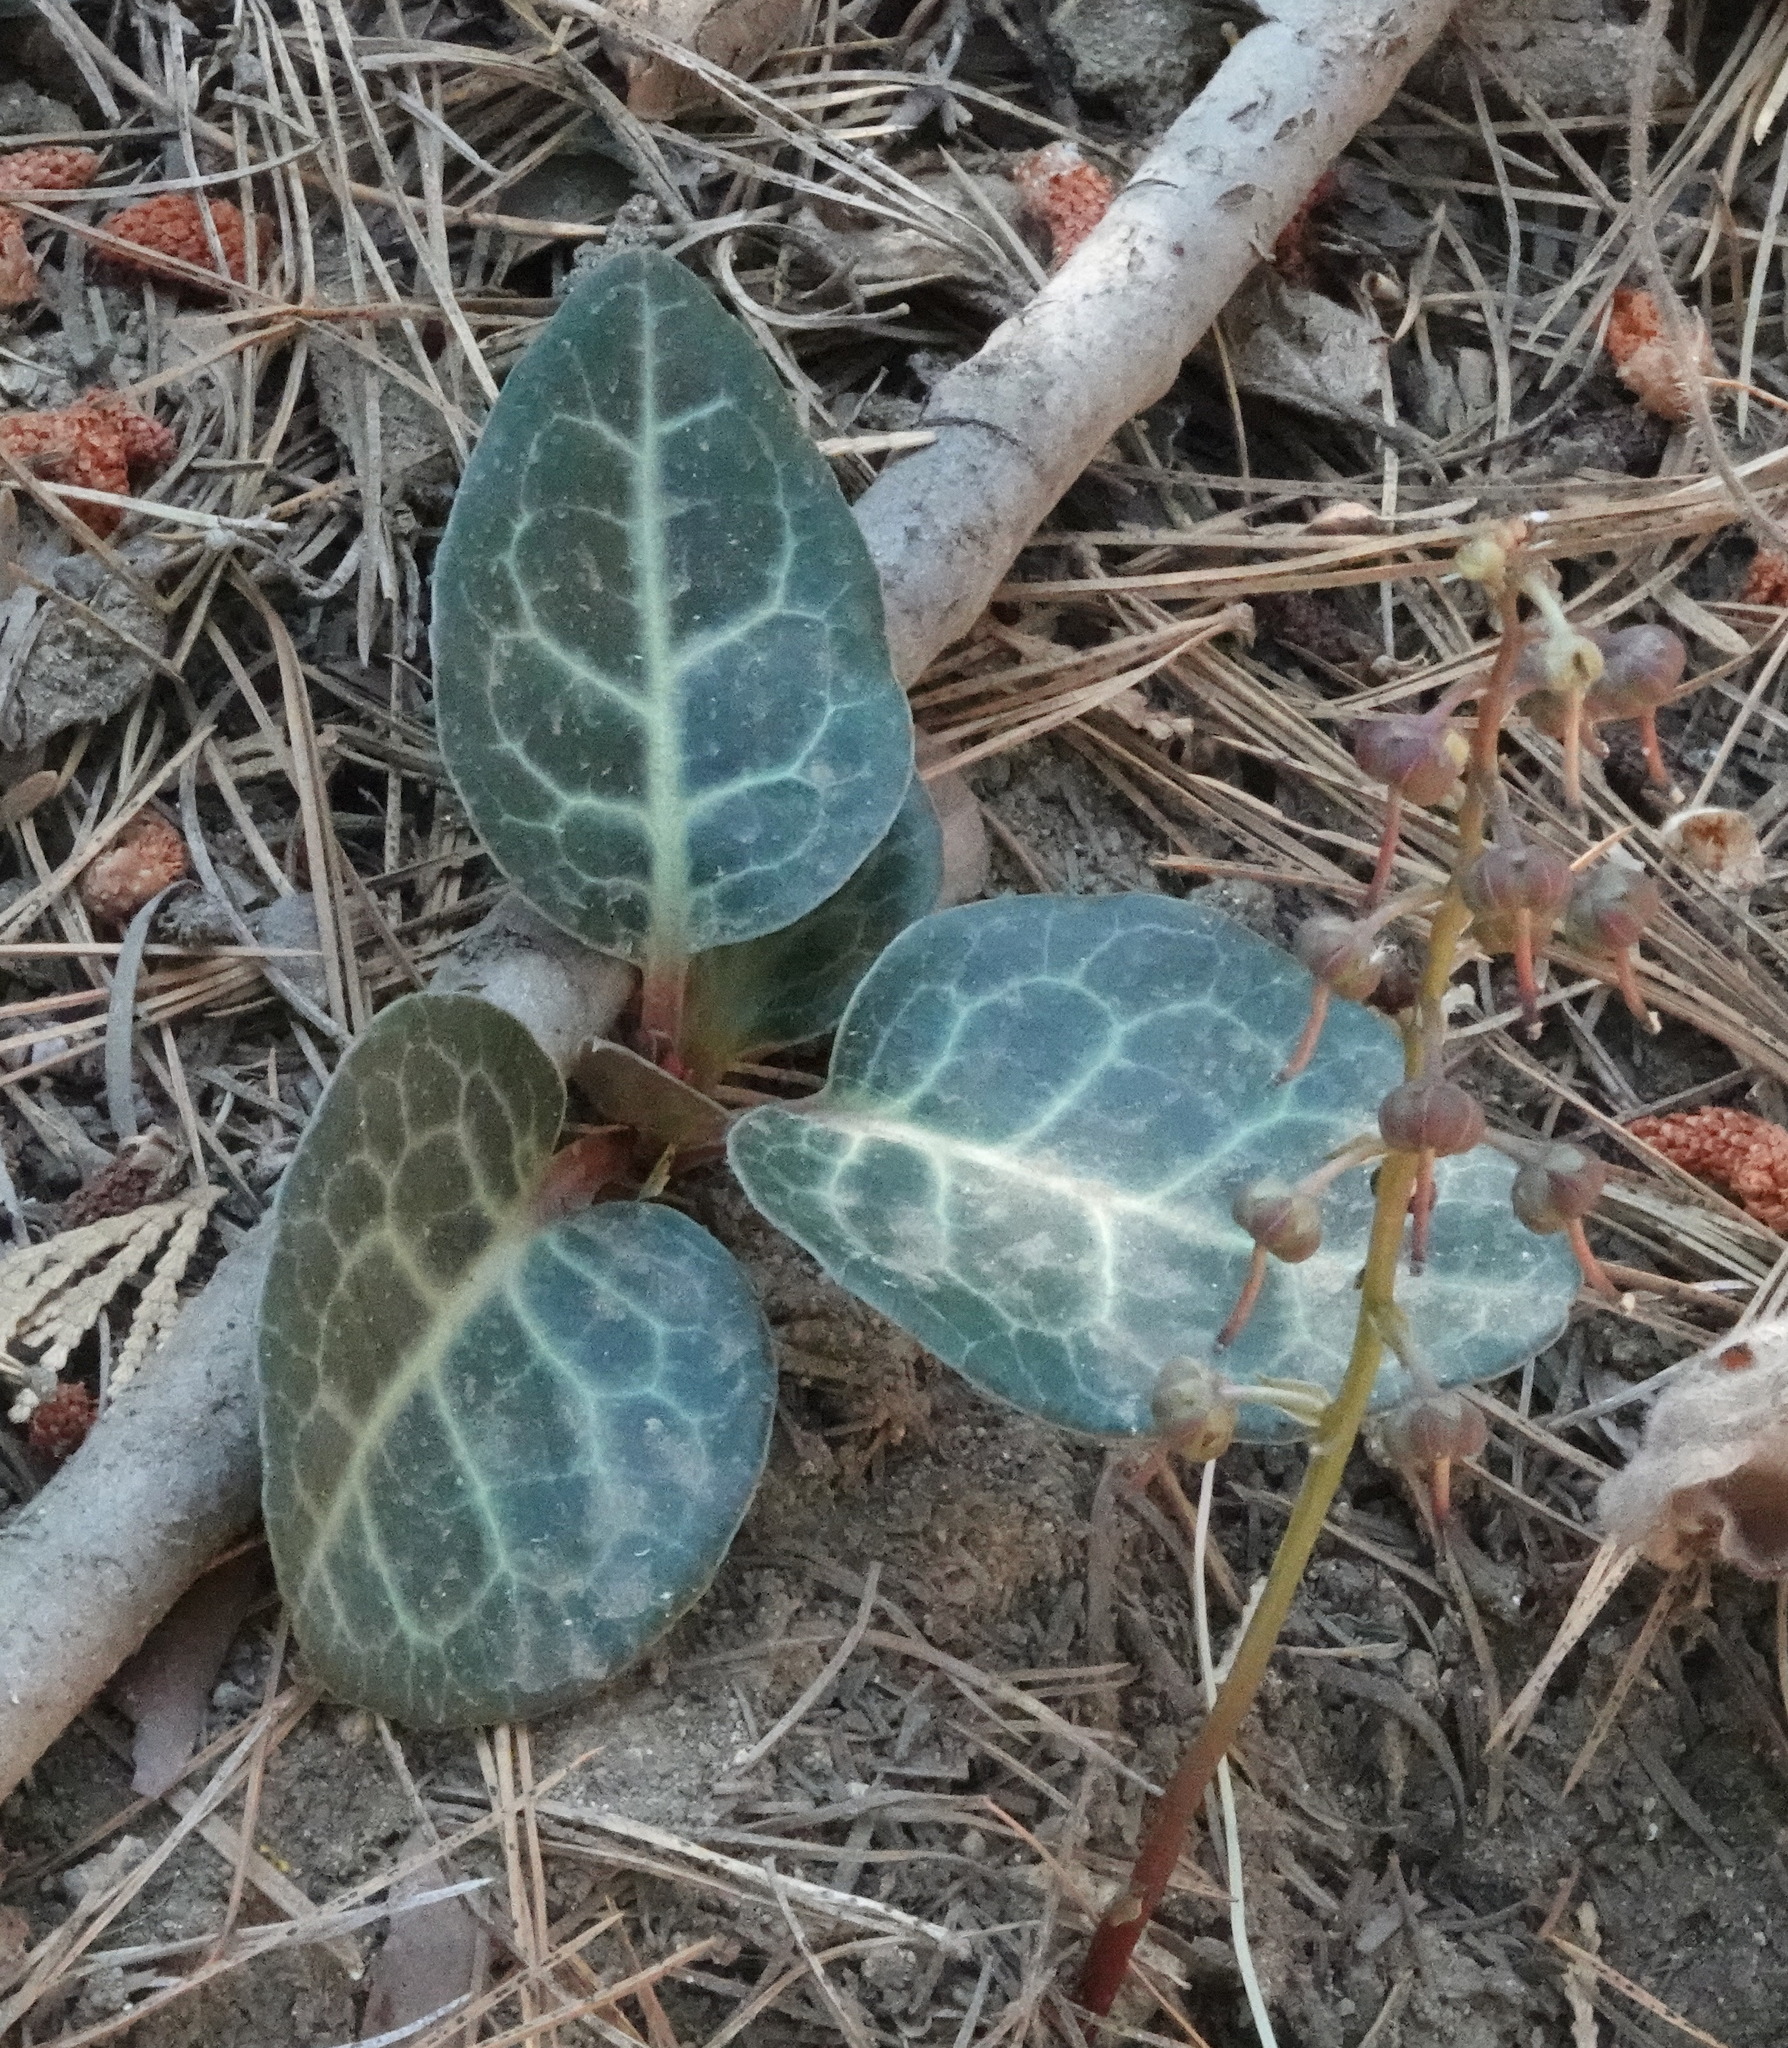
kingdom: Plantae
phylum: Tracheophyta
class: Magnoliopsida
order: Ericales
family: Ericaceae
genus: Pyrola
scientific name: Pyrola picta
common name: White-vein wintergreen
